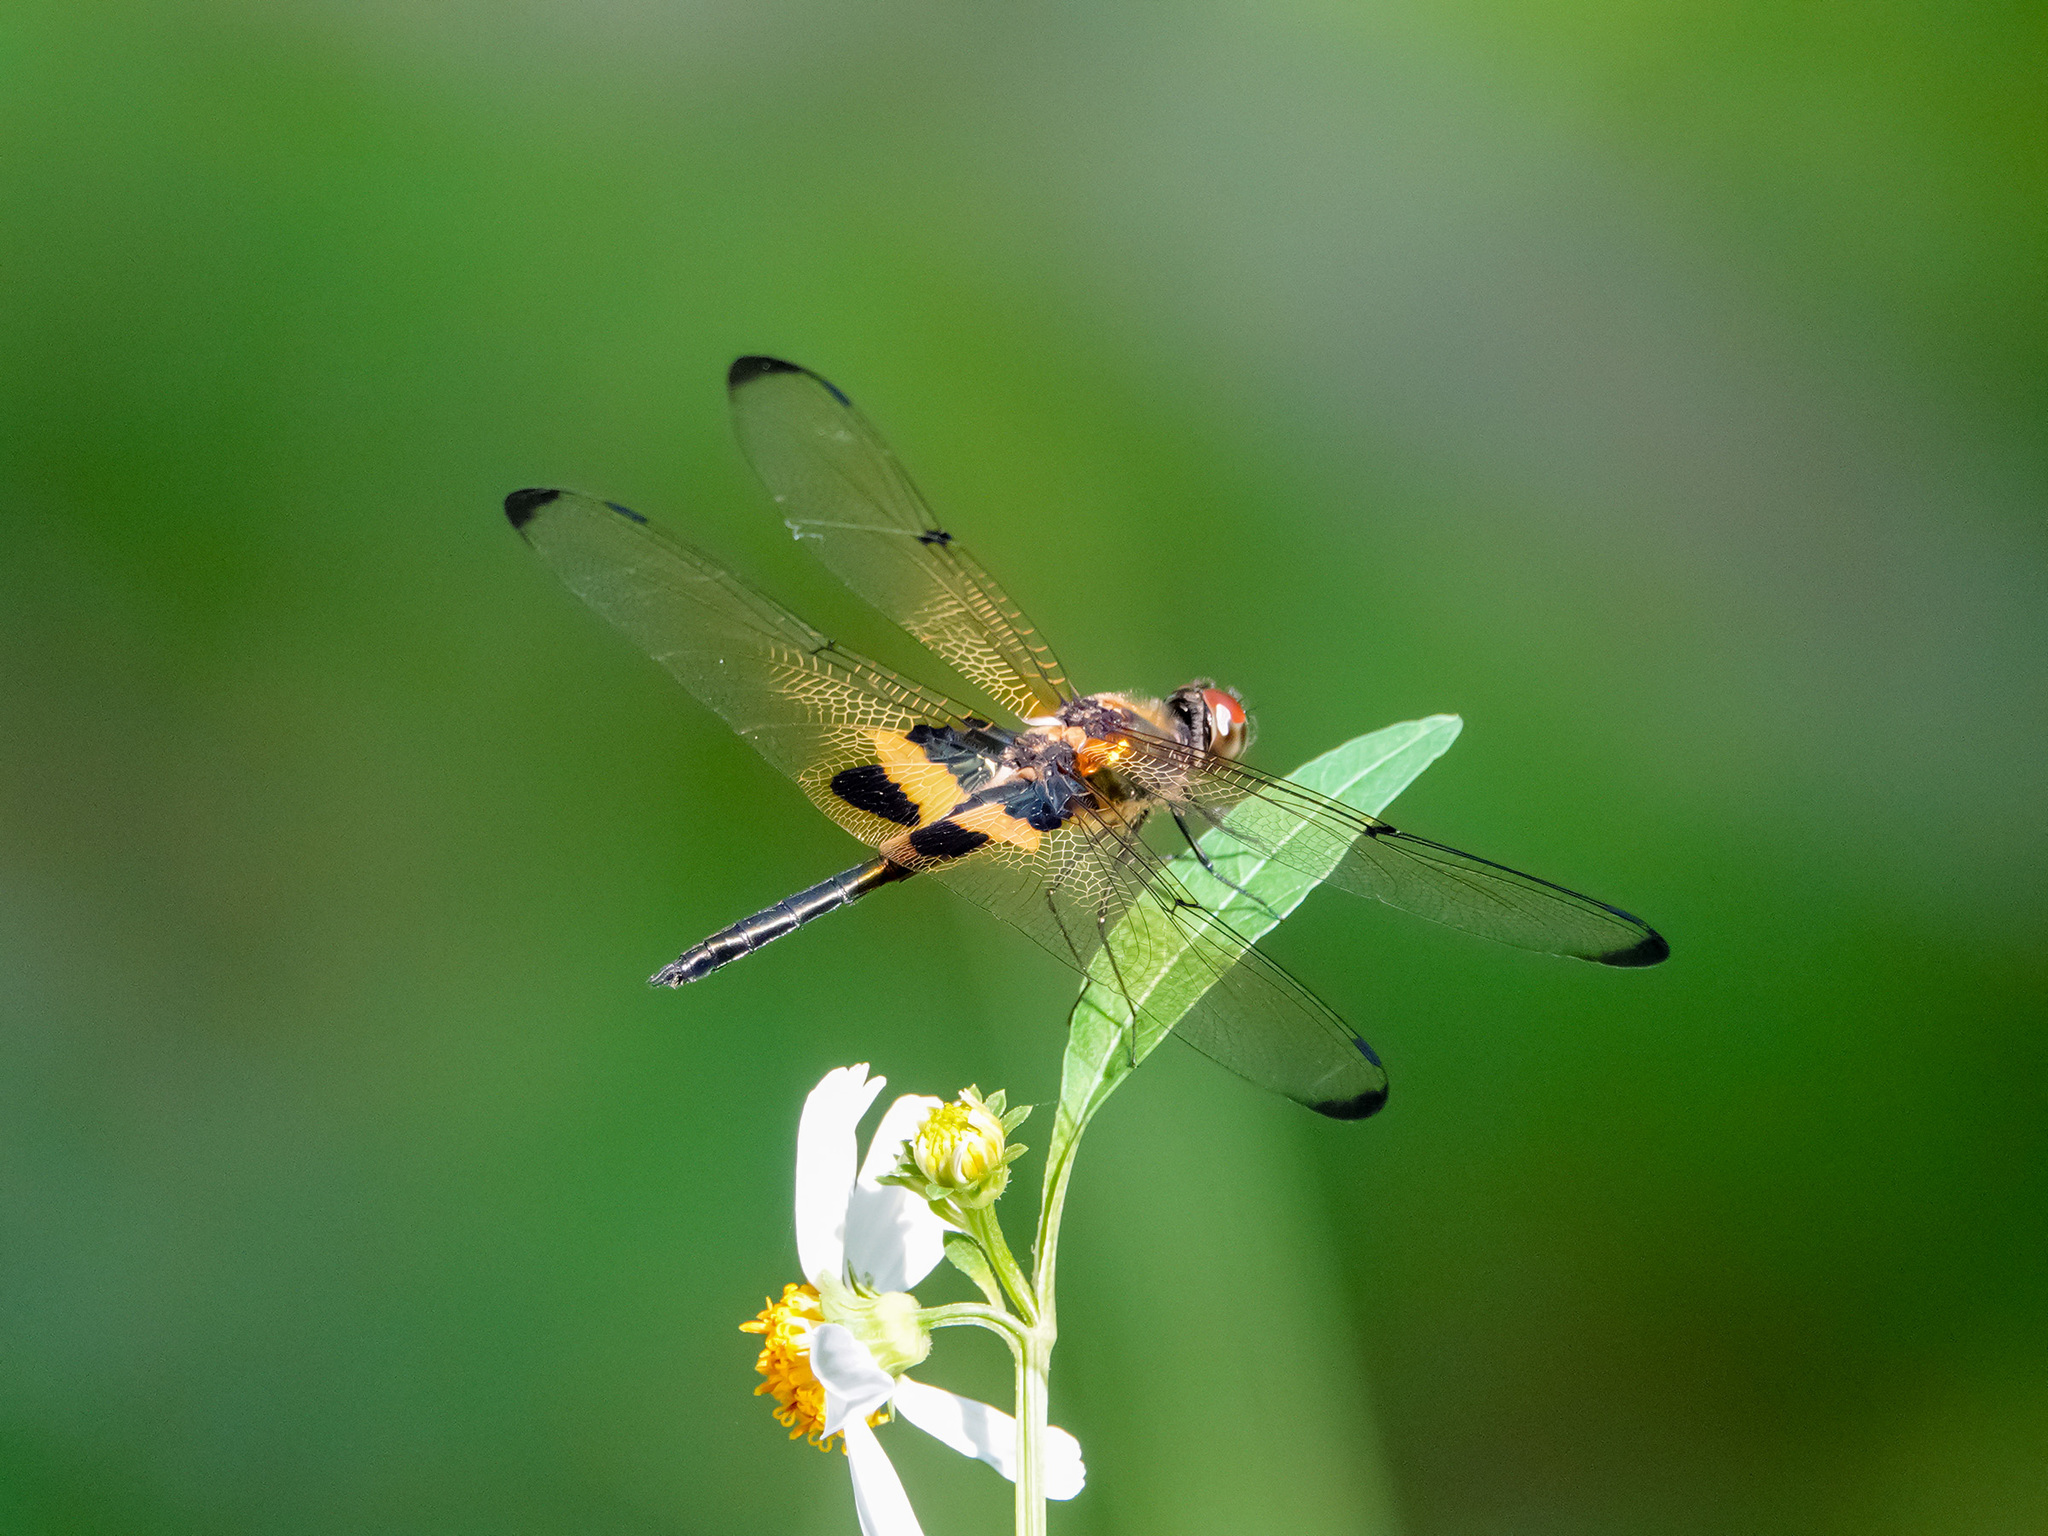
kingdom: Animalia
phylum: Arthropoda
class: Insecta
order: Odonata
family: Libellulidae
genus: Rhyothemis
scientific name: Rhyothemis phyllis
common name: Yellow-barred flutterer
